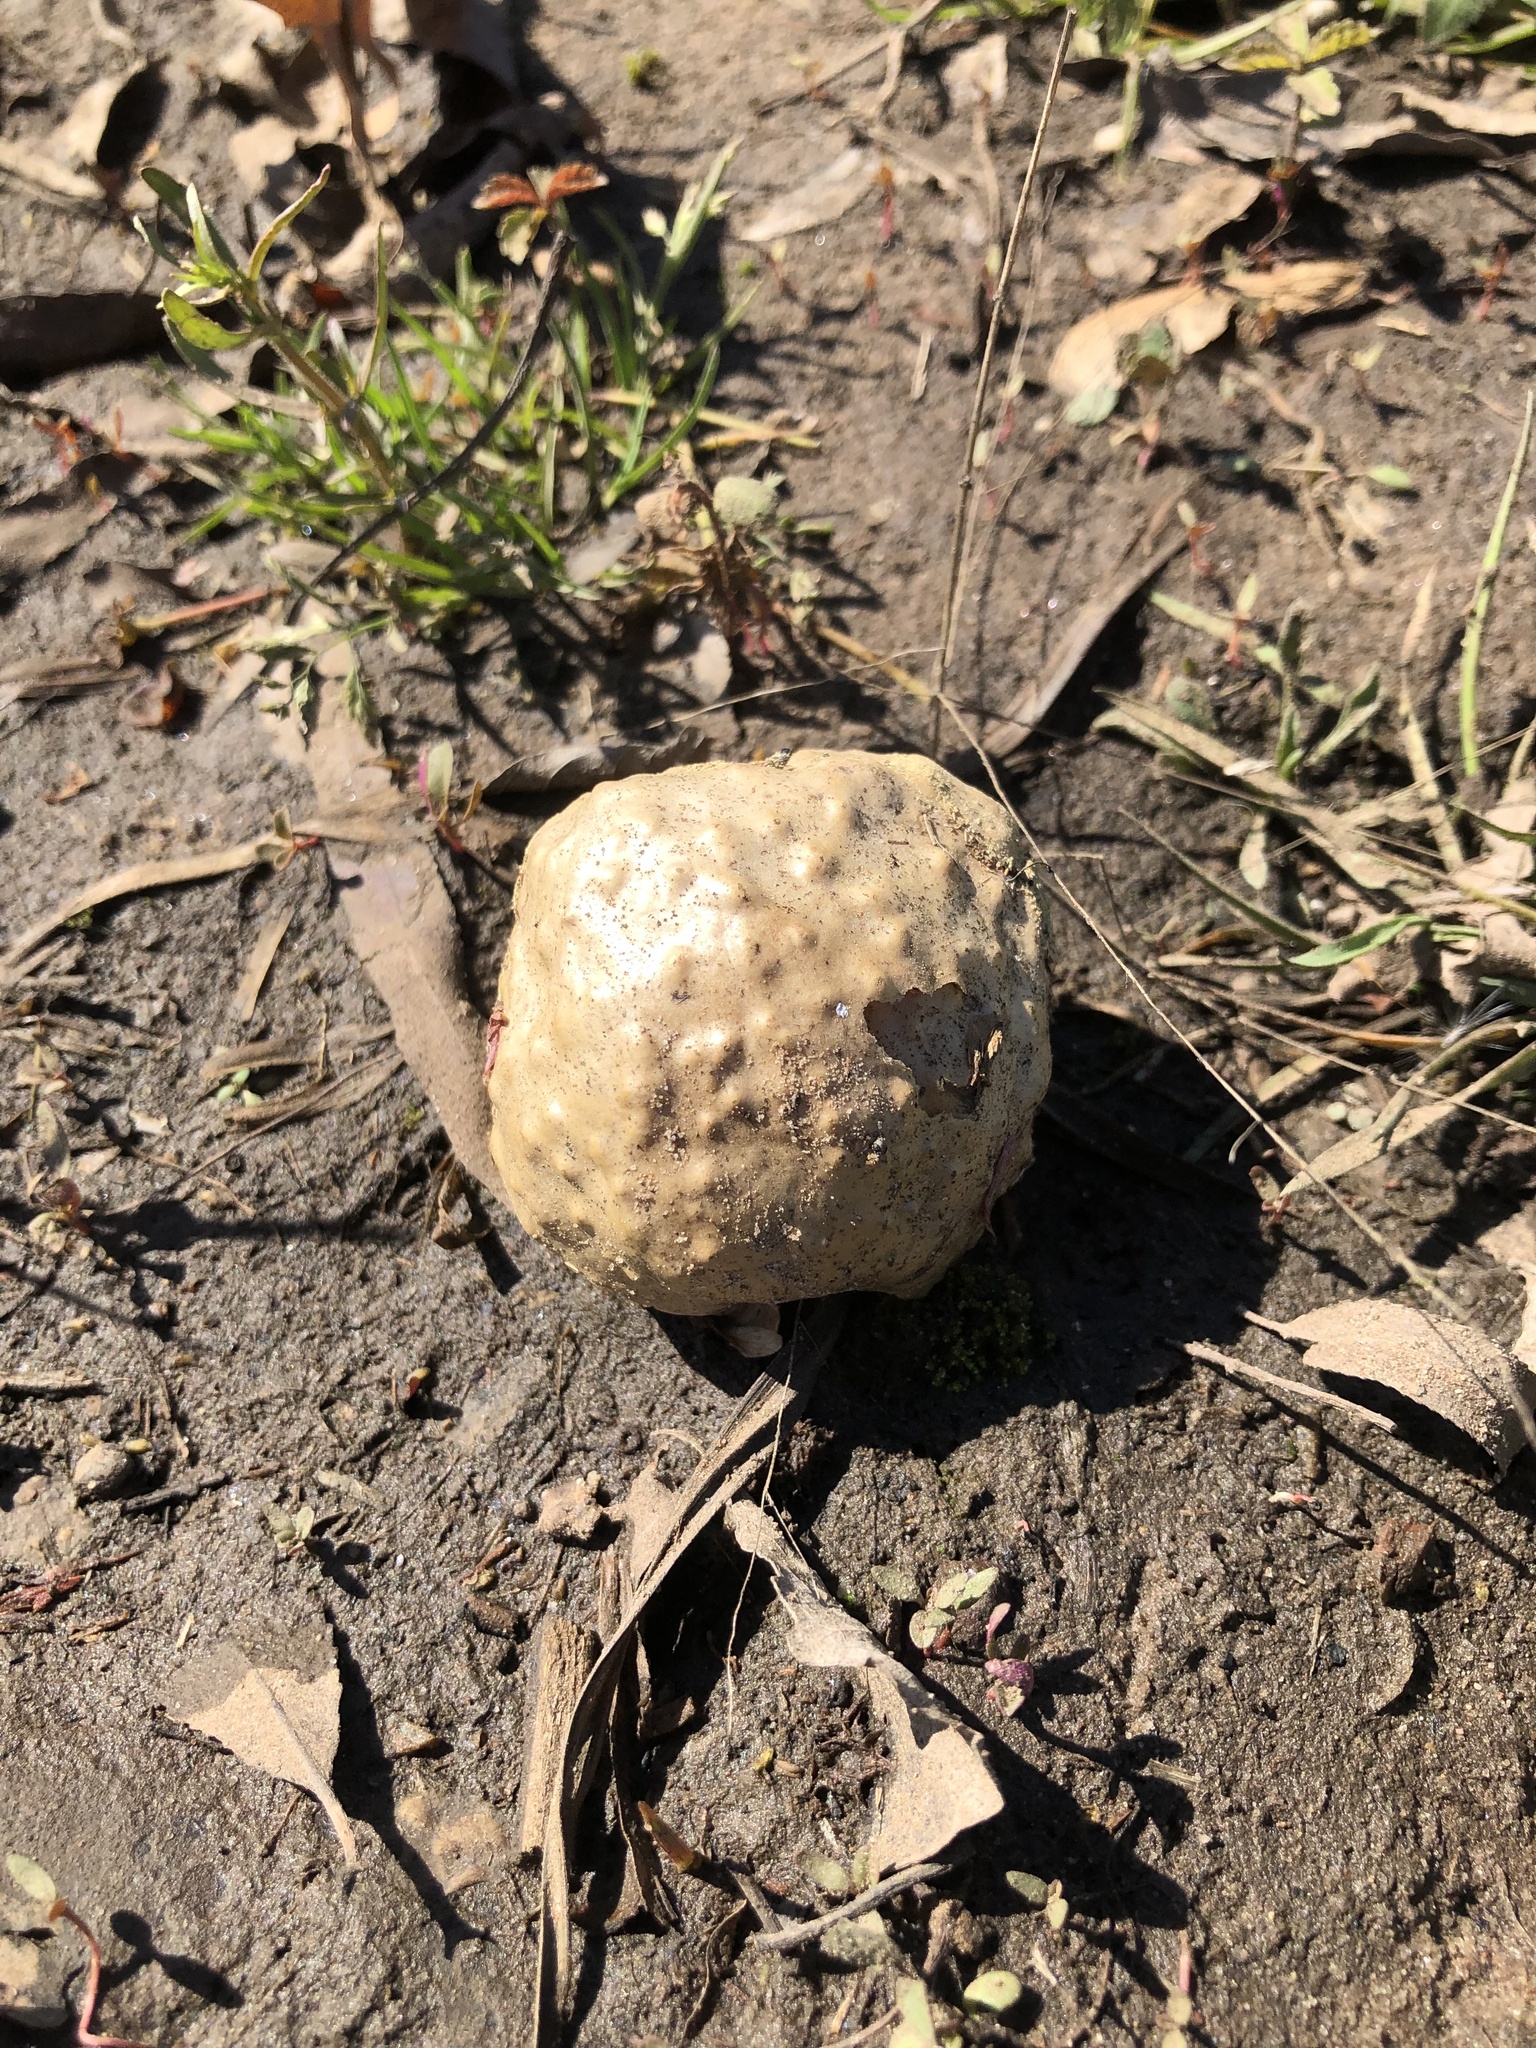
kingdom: Animalia
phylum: Arthropoda
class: Insecta
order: Hymenoptera
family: Cynipidae
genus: Amphibolips
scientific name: Amphibolips
